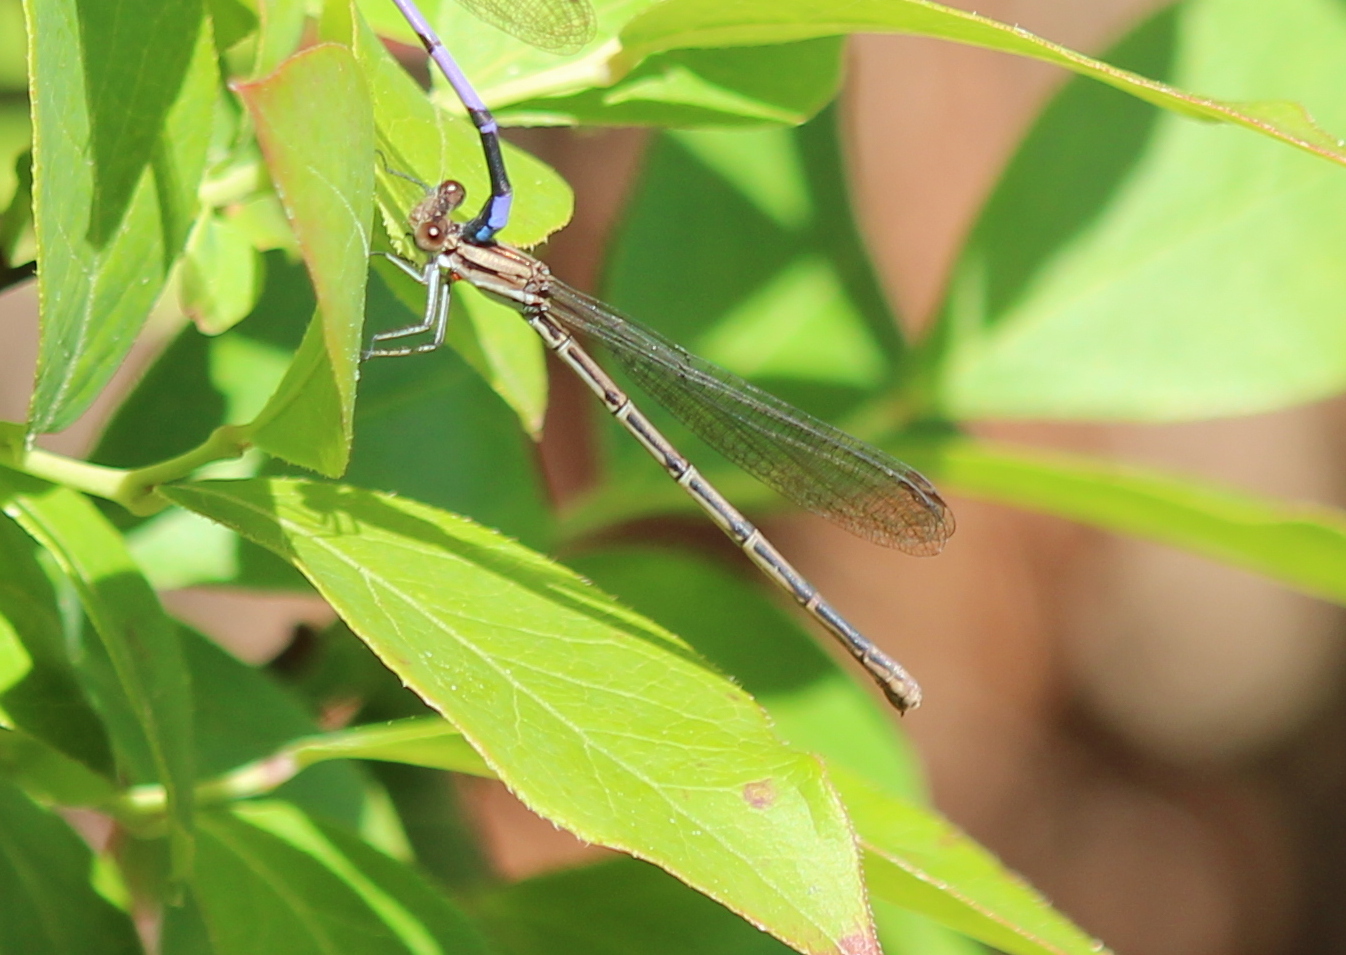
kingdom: Animalia
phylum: Arthropoda
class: Insecta
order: Odonata
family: Coenagrionidae
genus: Argia
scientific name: Argia fumipennis
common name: Variable dancer
